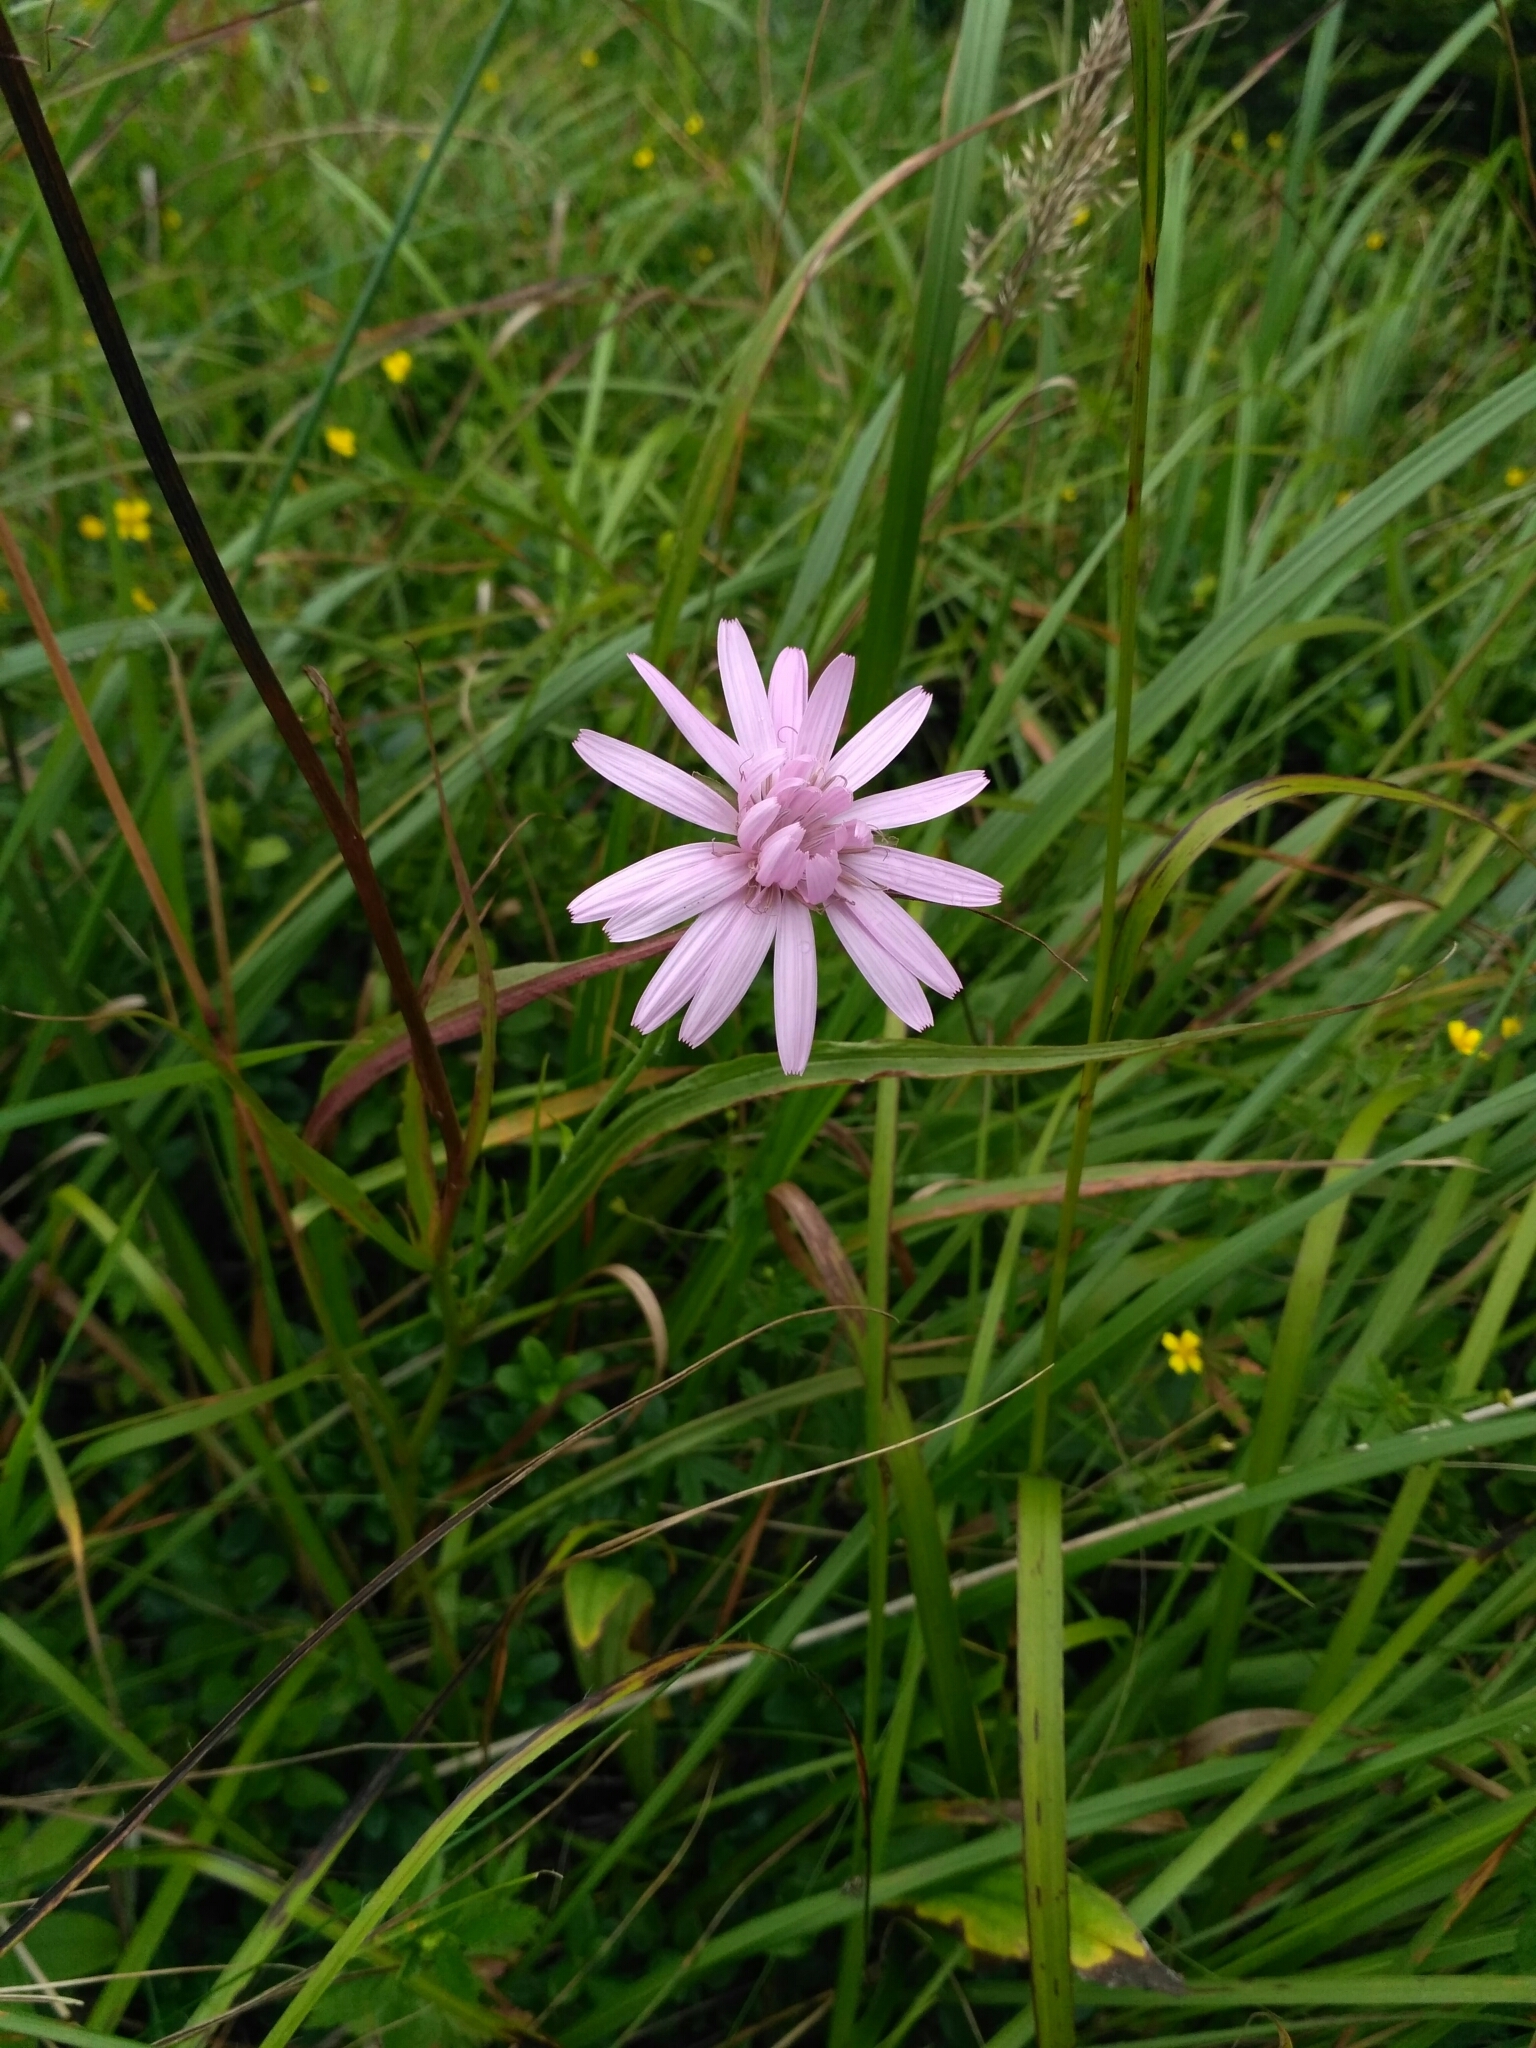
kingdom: Plantae
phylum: Tracheophyta
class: Magnoliopsida
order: Asterales
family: Asteraceae
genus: Scorzonera
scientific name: Scorzonera rosea
